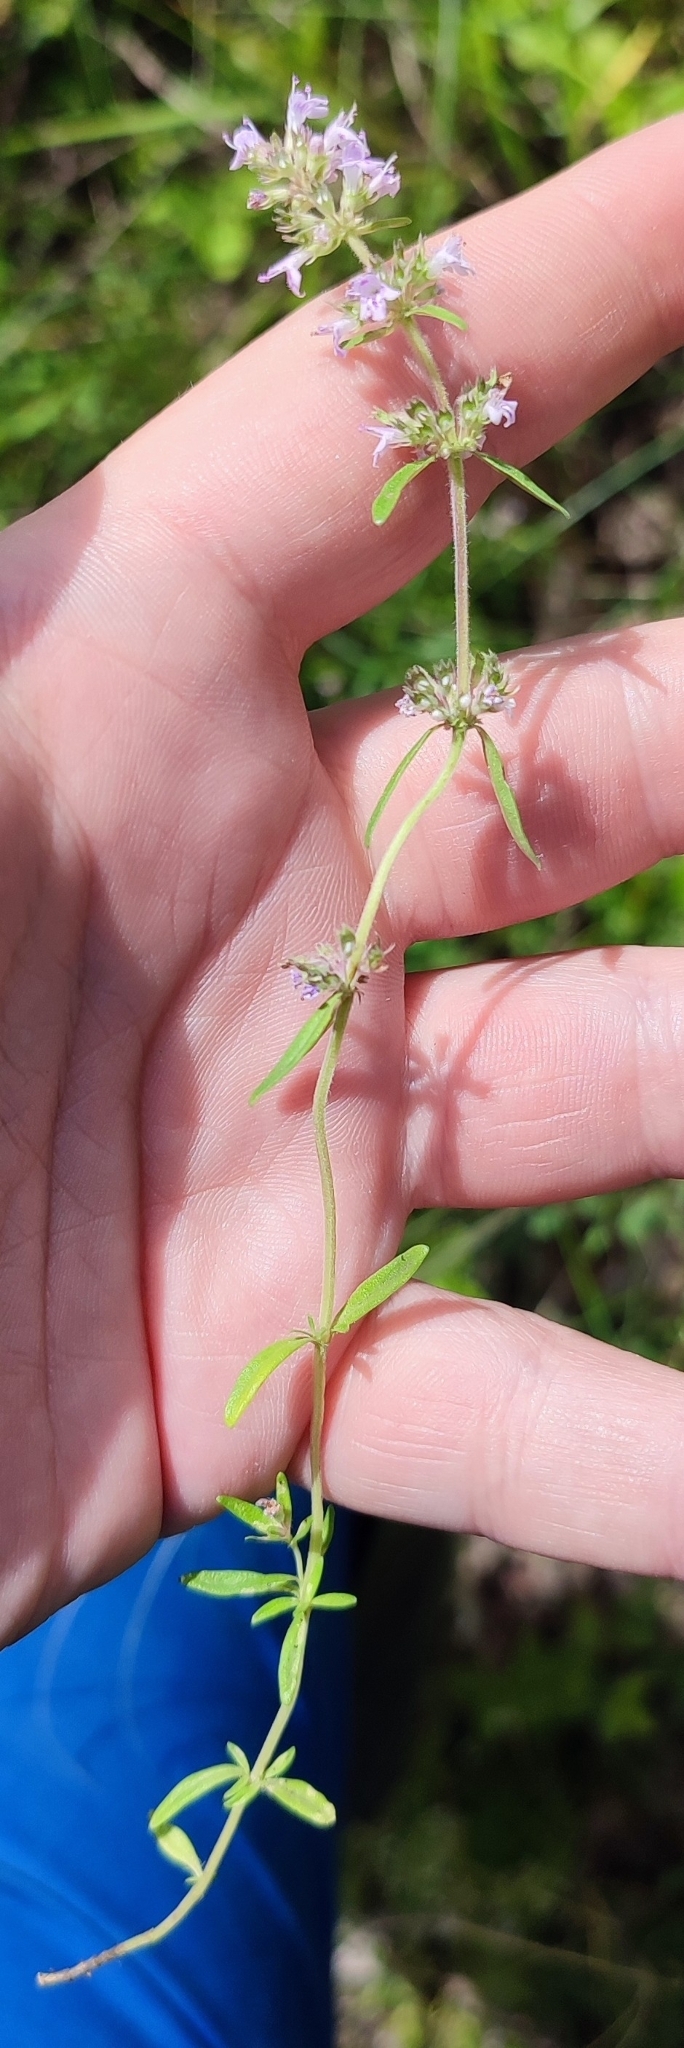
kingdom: Plantae
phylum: Tracheophyta
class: Magnoliopsida
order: Lamiales
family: Lamiaceae
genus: Thymus
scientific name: Thymus pannonicus
